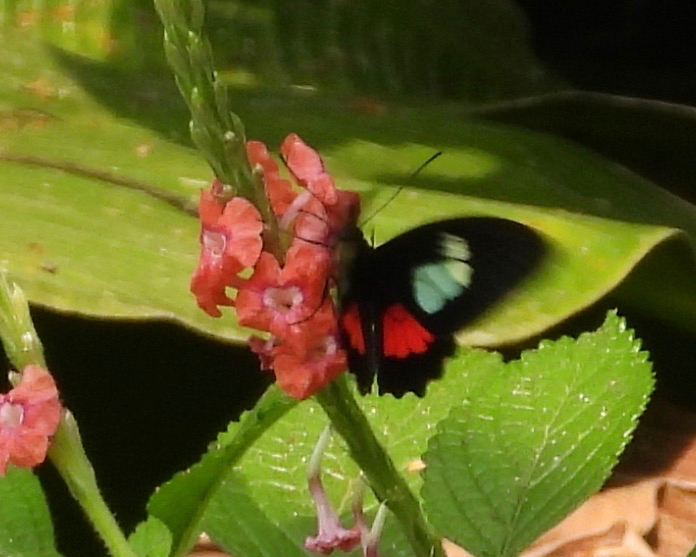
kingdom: Animalia
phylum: Arthropoda
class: Insecta
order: Lepidoptera
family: Papilionidae
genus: Parides
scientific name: Parides eurimedes
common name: True cattleheart
